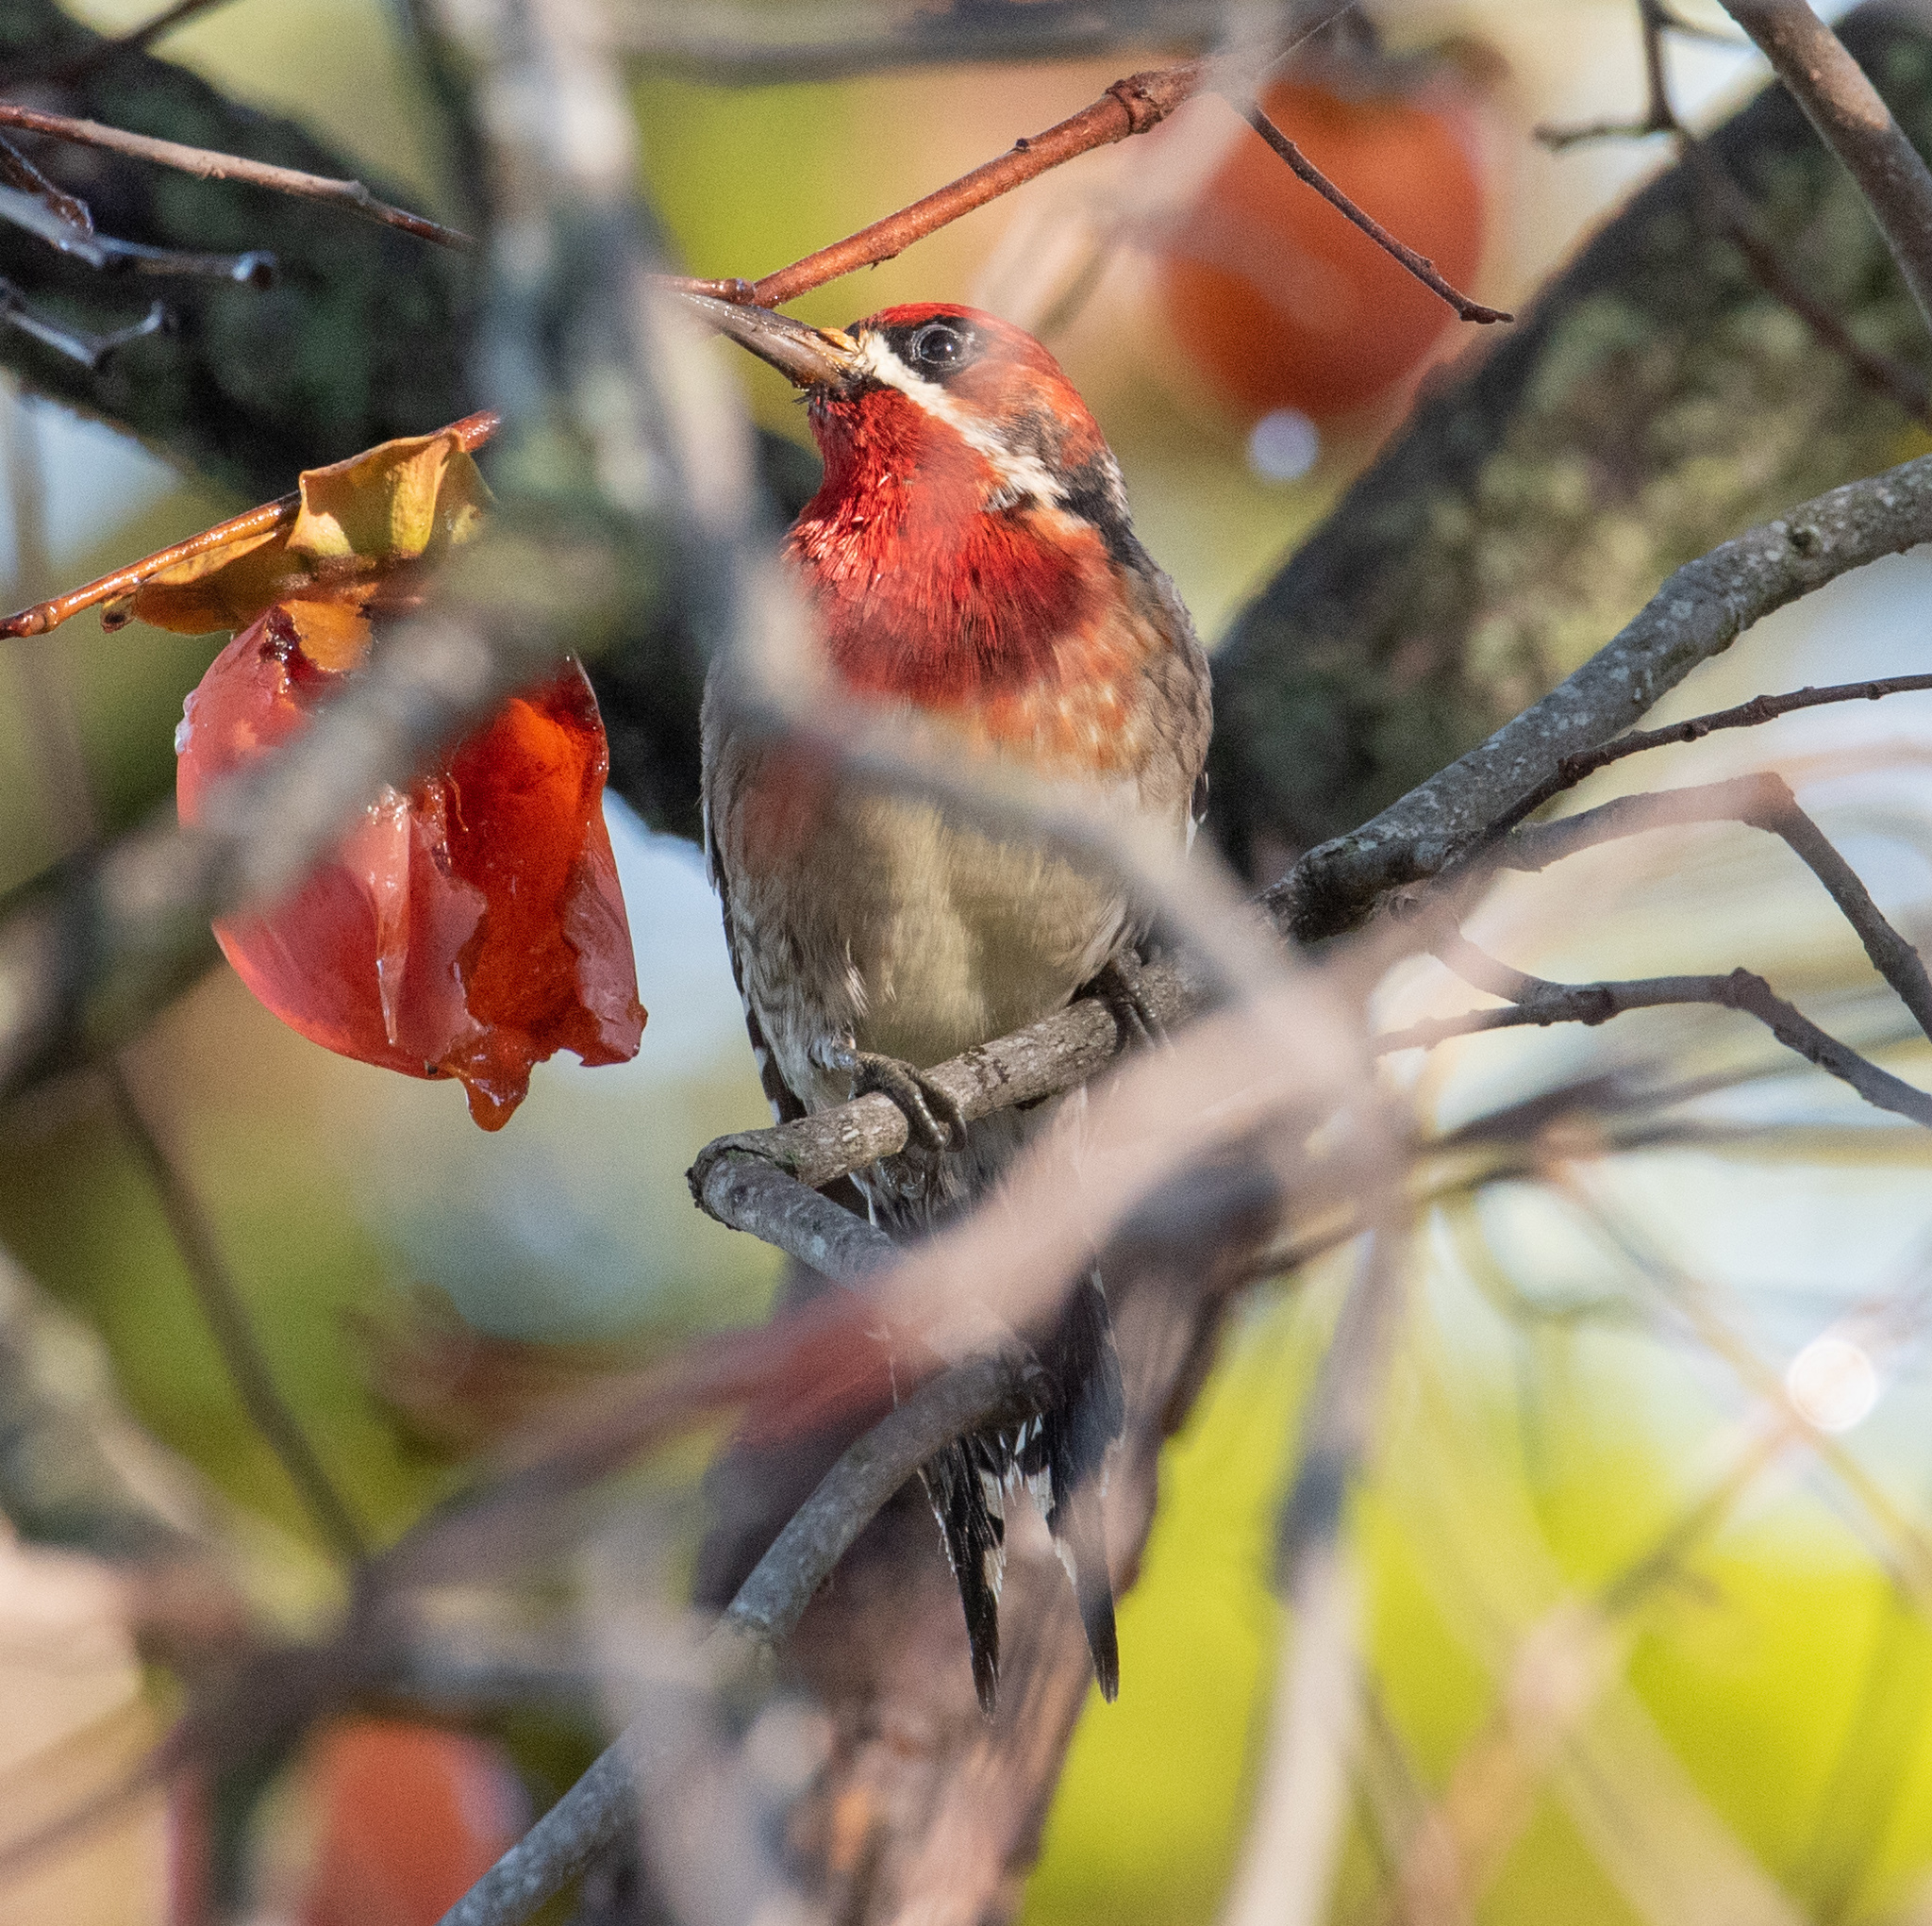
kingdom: Animalia
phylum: Chordata
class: Aves
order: Piciformes
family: Picidae
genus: Sphyrapicus
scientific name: Sphyrapicus ruber
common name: Red-breasted sapsucker
